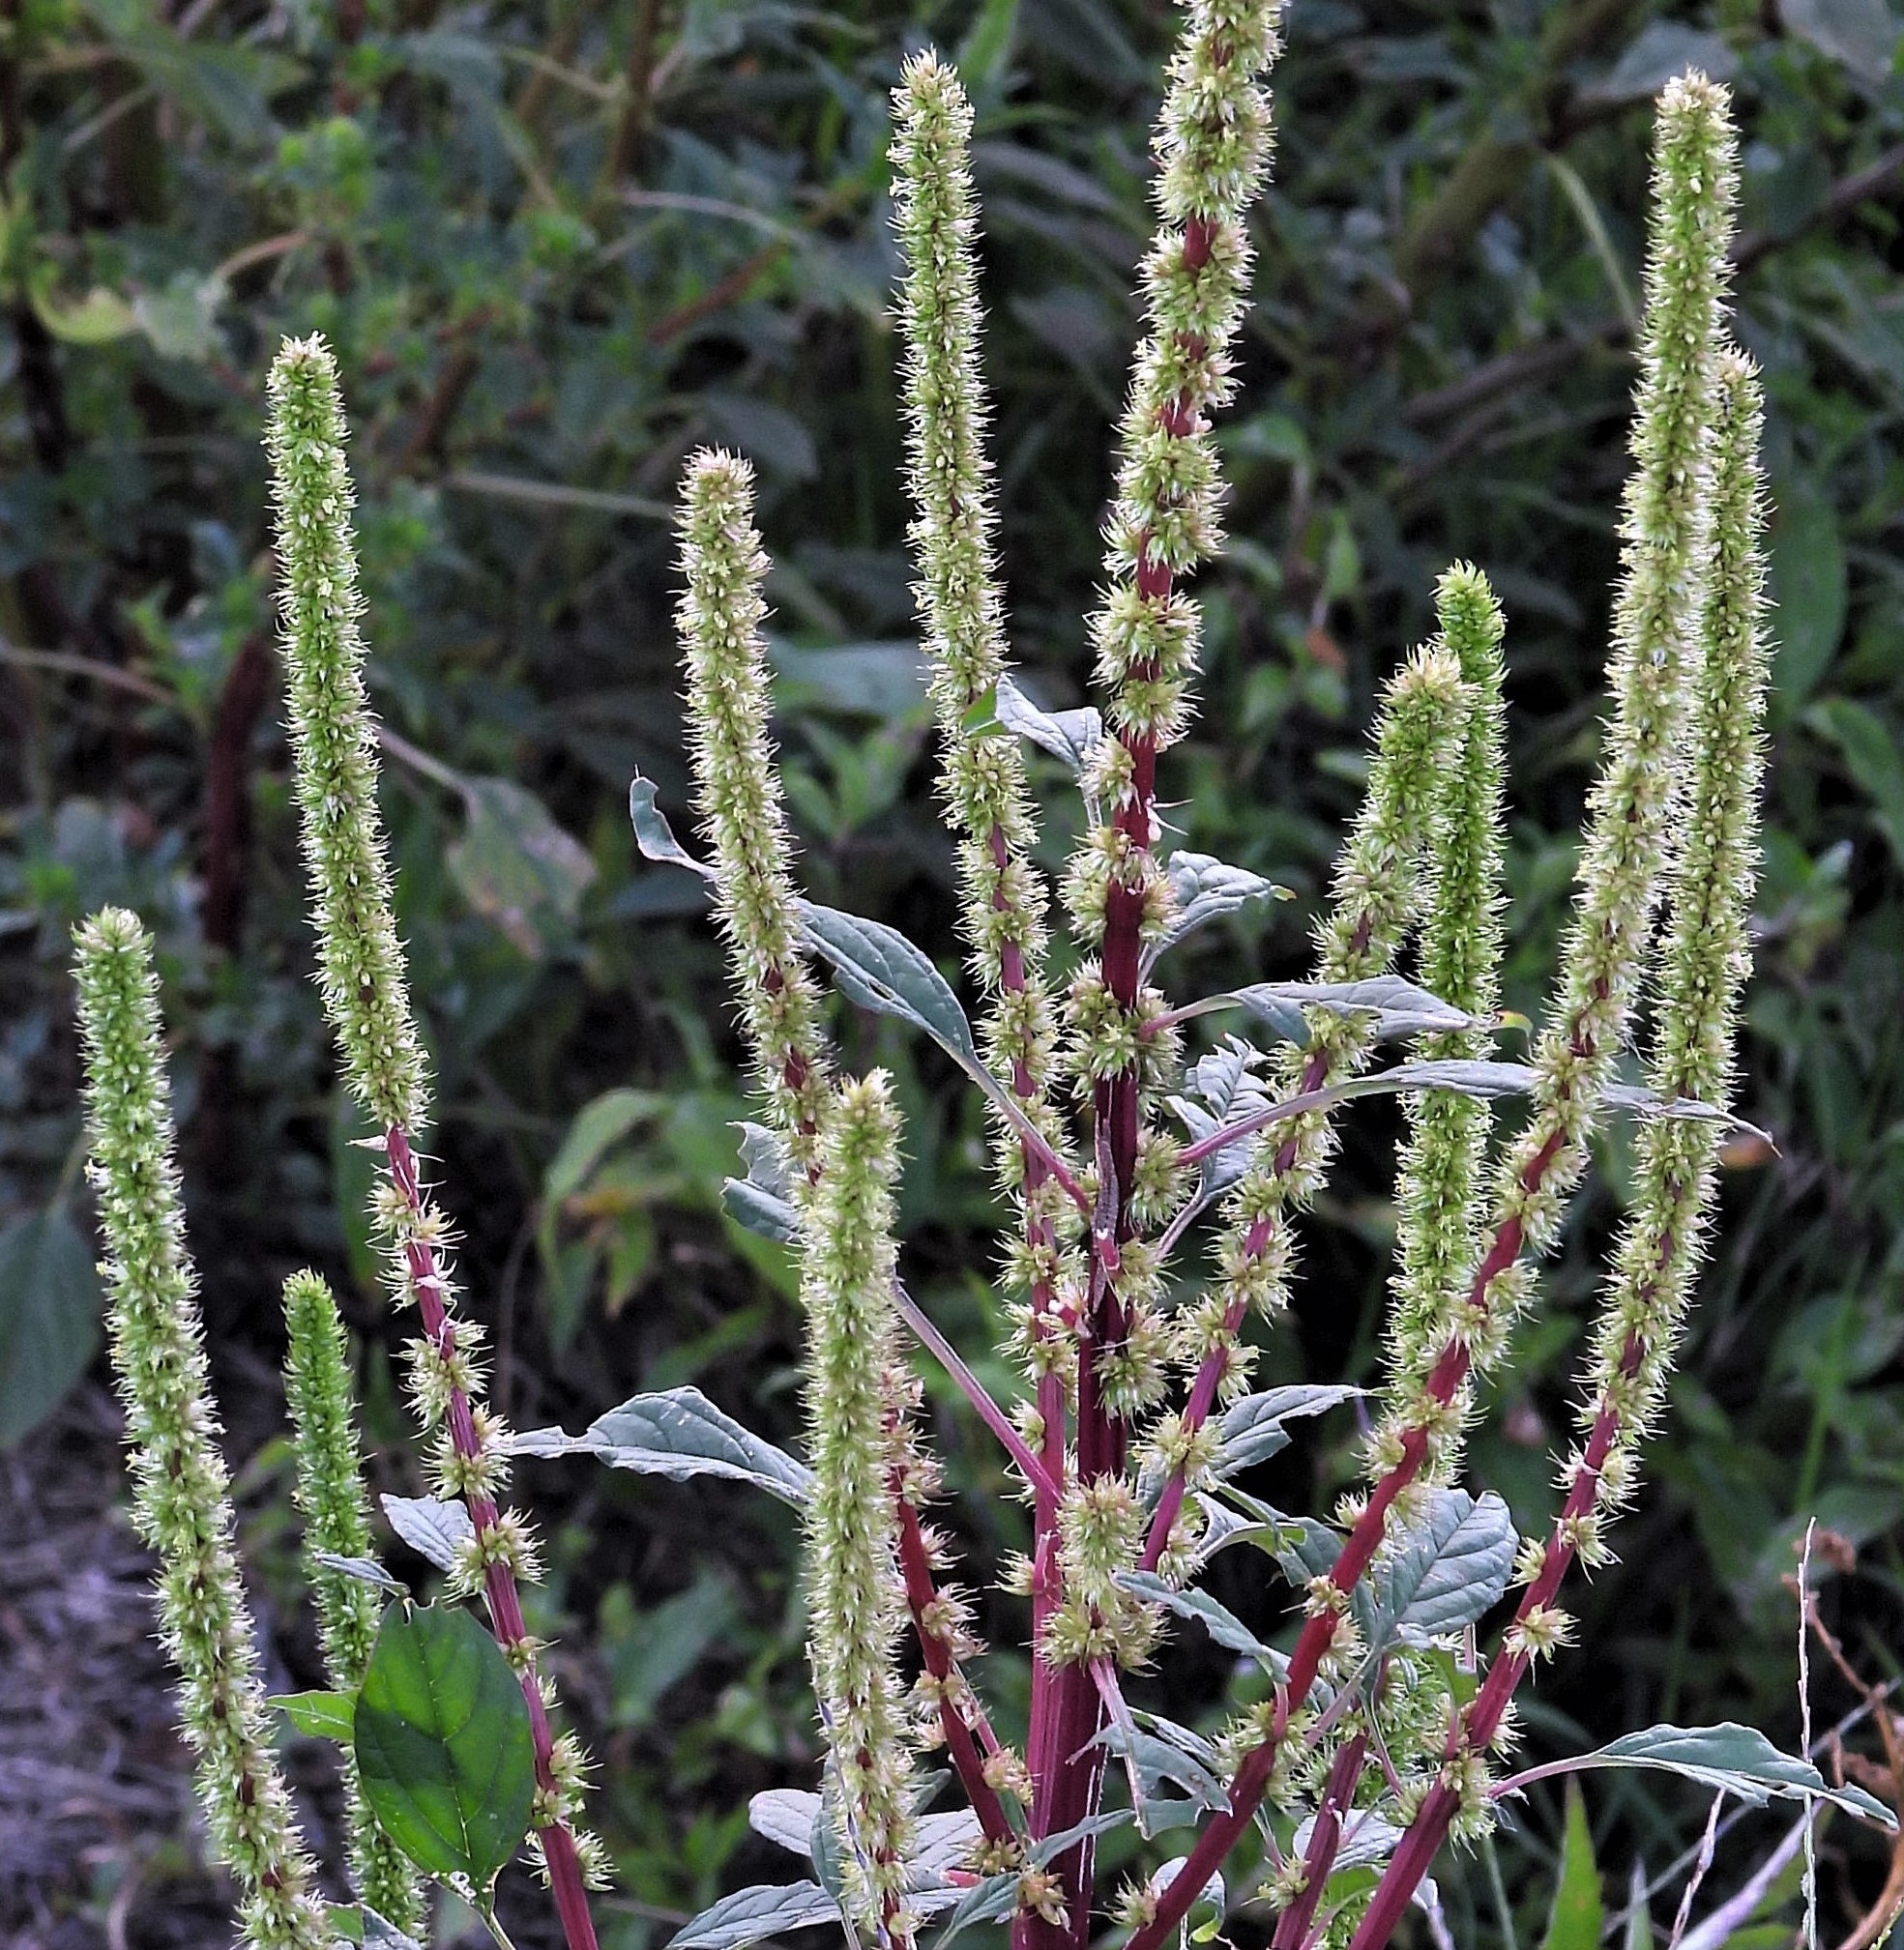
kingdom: Plantae
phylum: Tracheophyta
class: Magnoliopsida
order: Caryophyllales
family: Amaranthaceae
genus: Amaranthus
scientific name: Amaranthus palmeri
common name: Dioecious amaranth
